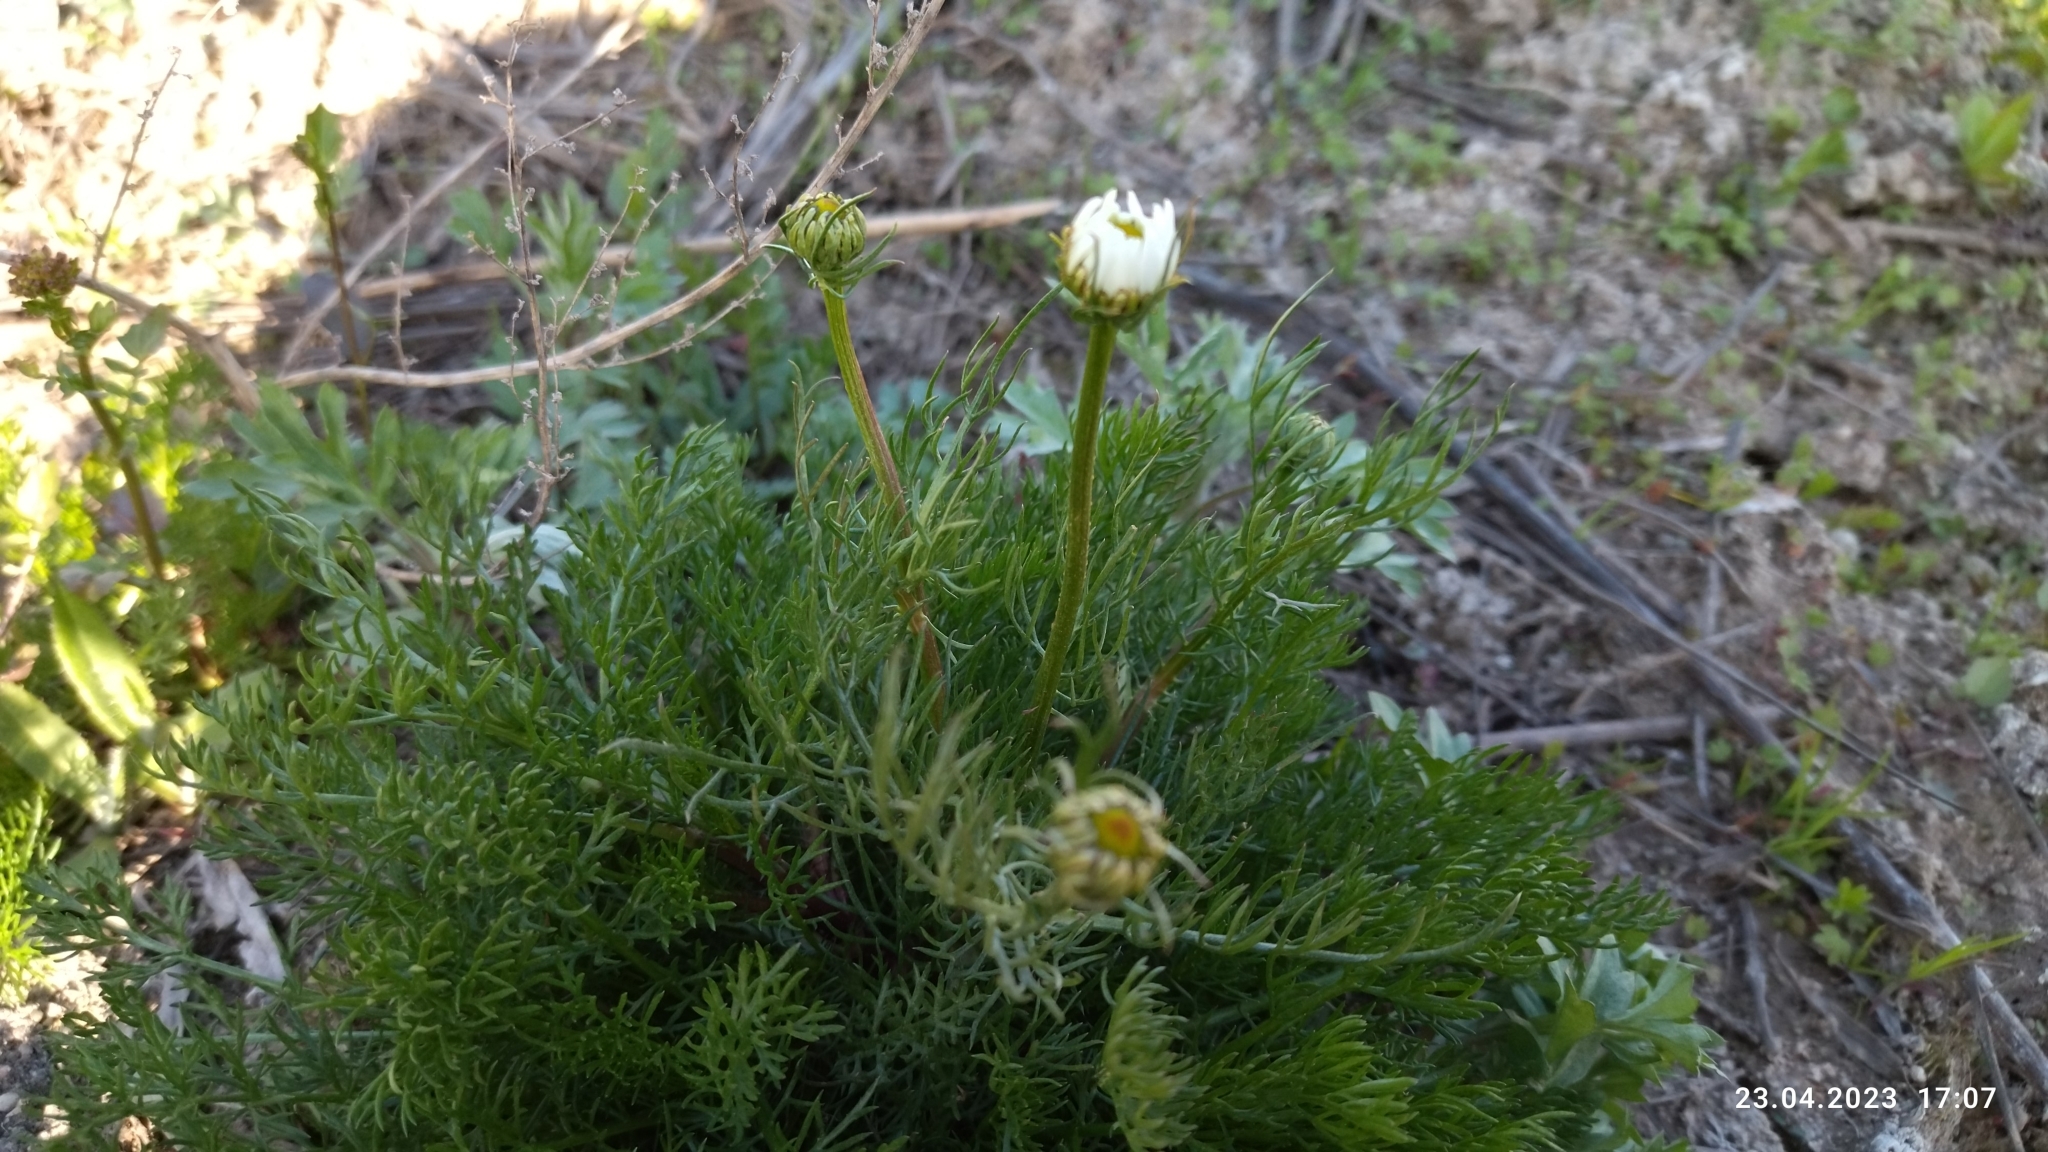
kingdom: Plantae
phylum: Tracheophyta
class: Magnoliopsida
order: Asterales
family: Asteraceae
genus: Tripleurospermum
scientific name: Tripleurospermum inodorum
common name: Scentless mayweed
